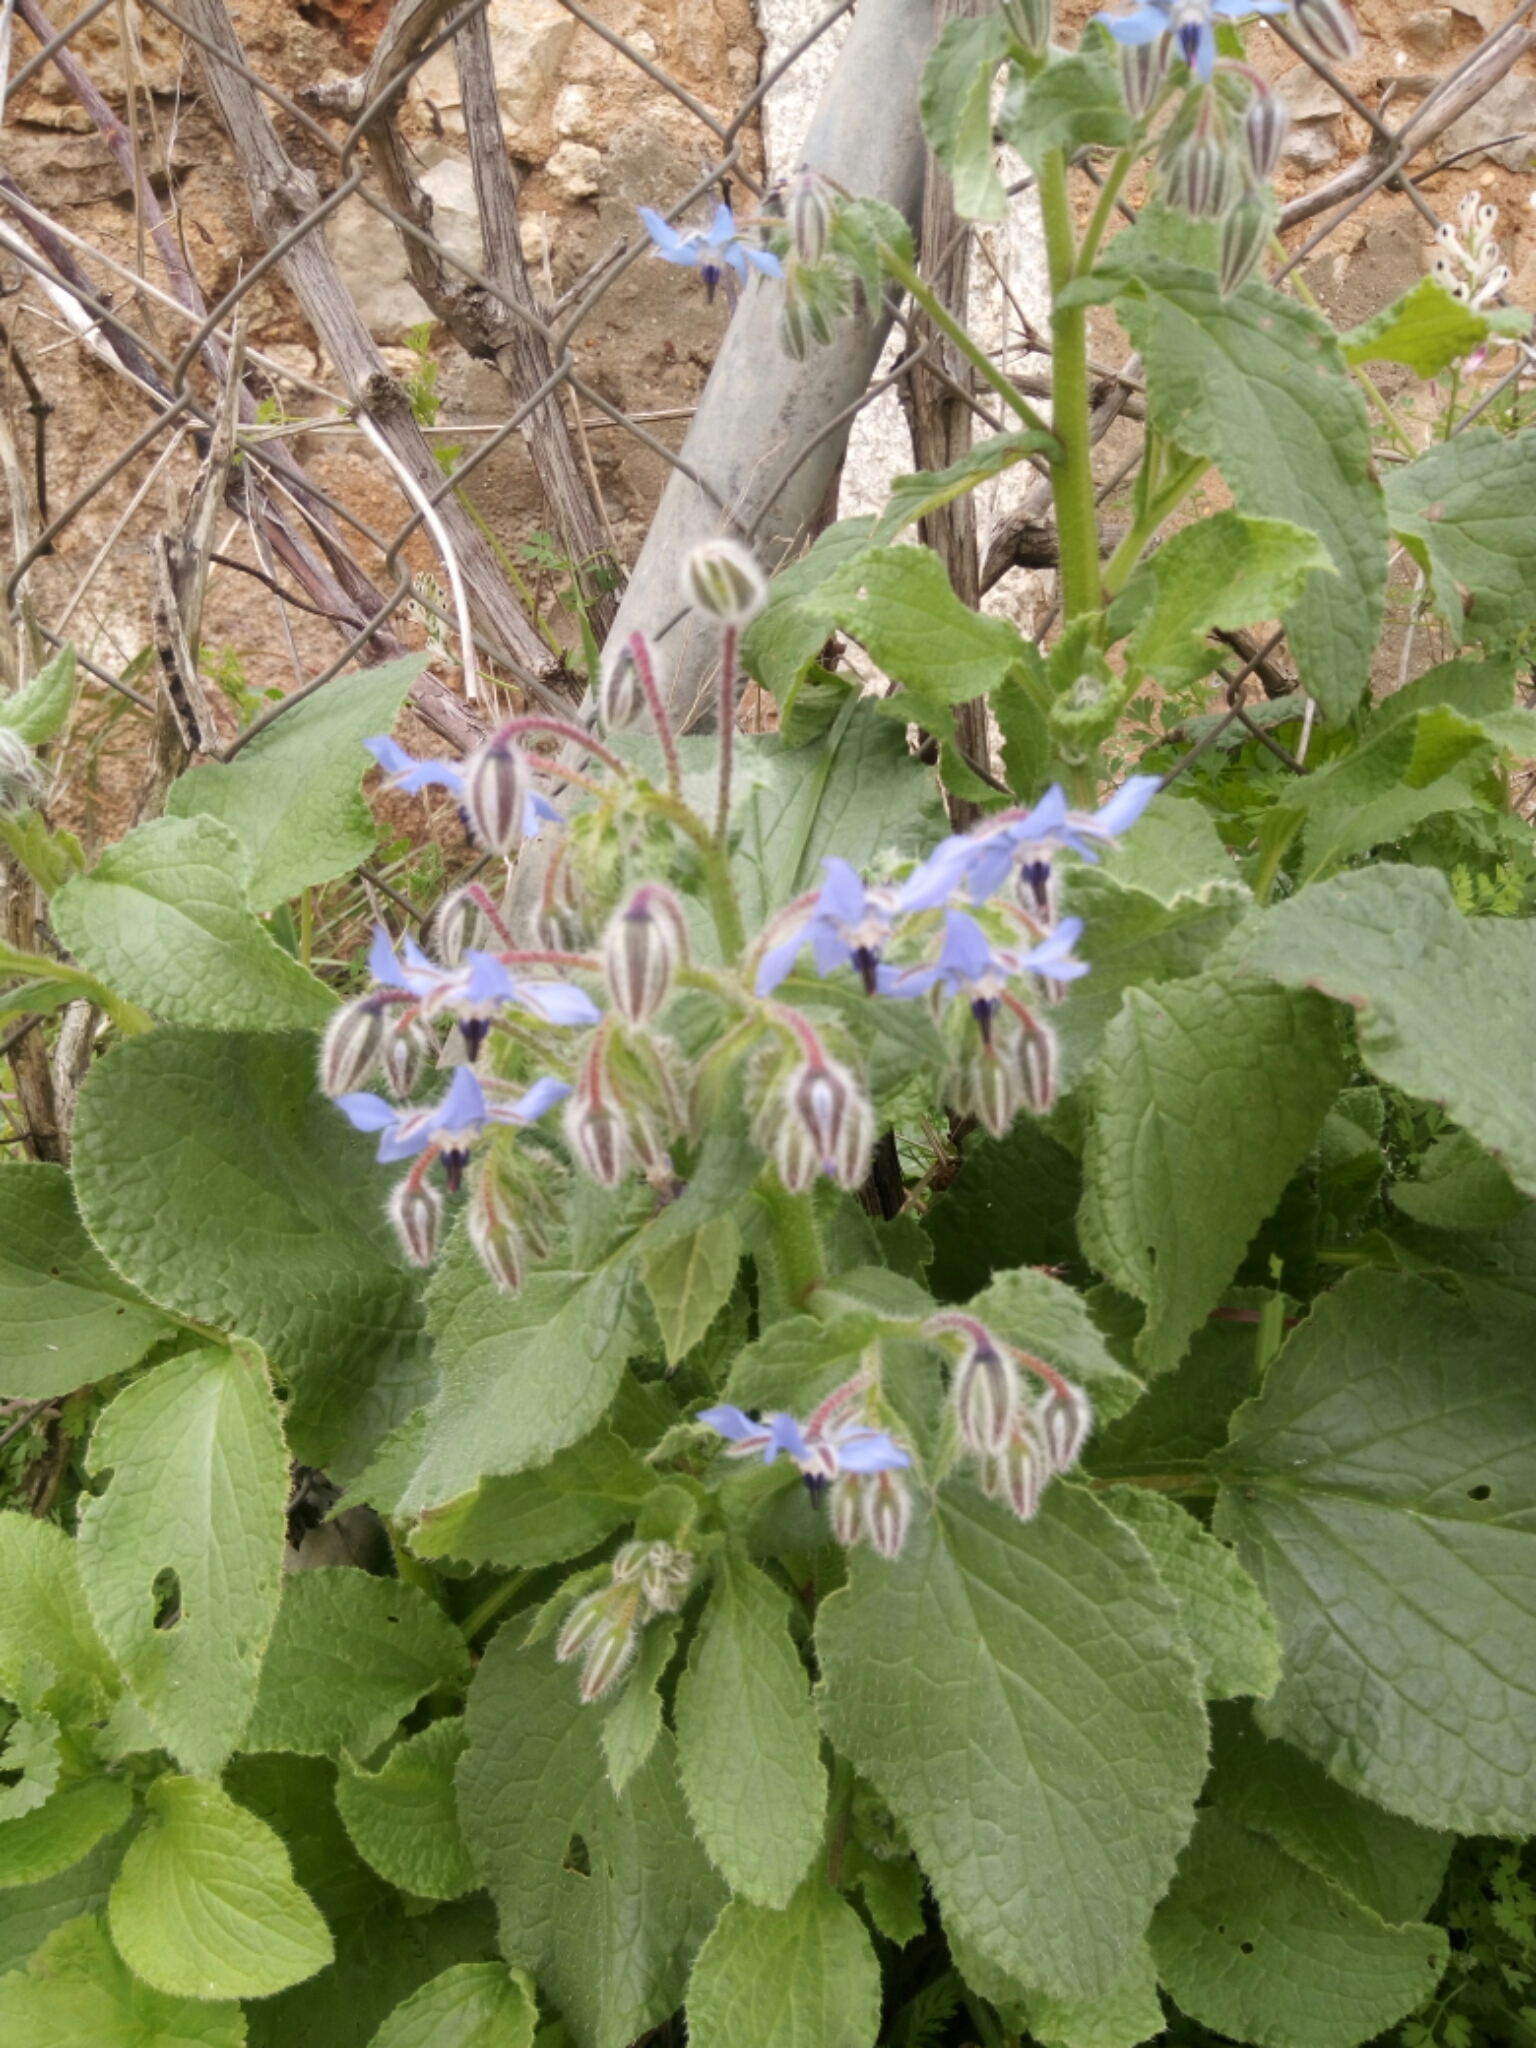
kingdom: Plantae
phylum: Tracheophyta
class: Magnoliopsida
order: Boraginales
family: Boraginaceae
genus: Borago
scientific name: Borago officinalis
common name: Borage
